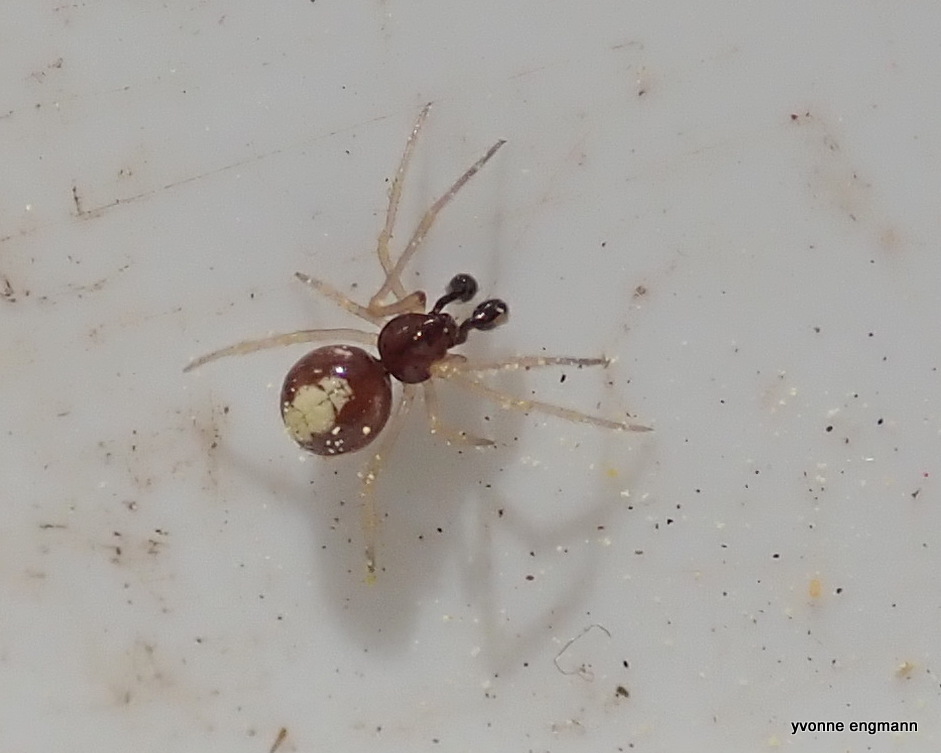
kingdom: Animalia
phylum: Arthropoda
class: Arachnida
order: Araneae
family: Theridiidae
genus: Neottiura
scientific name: Neottiura bimaculata
